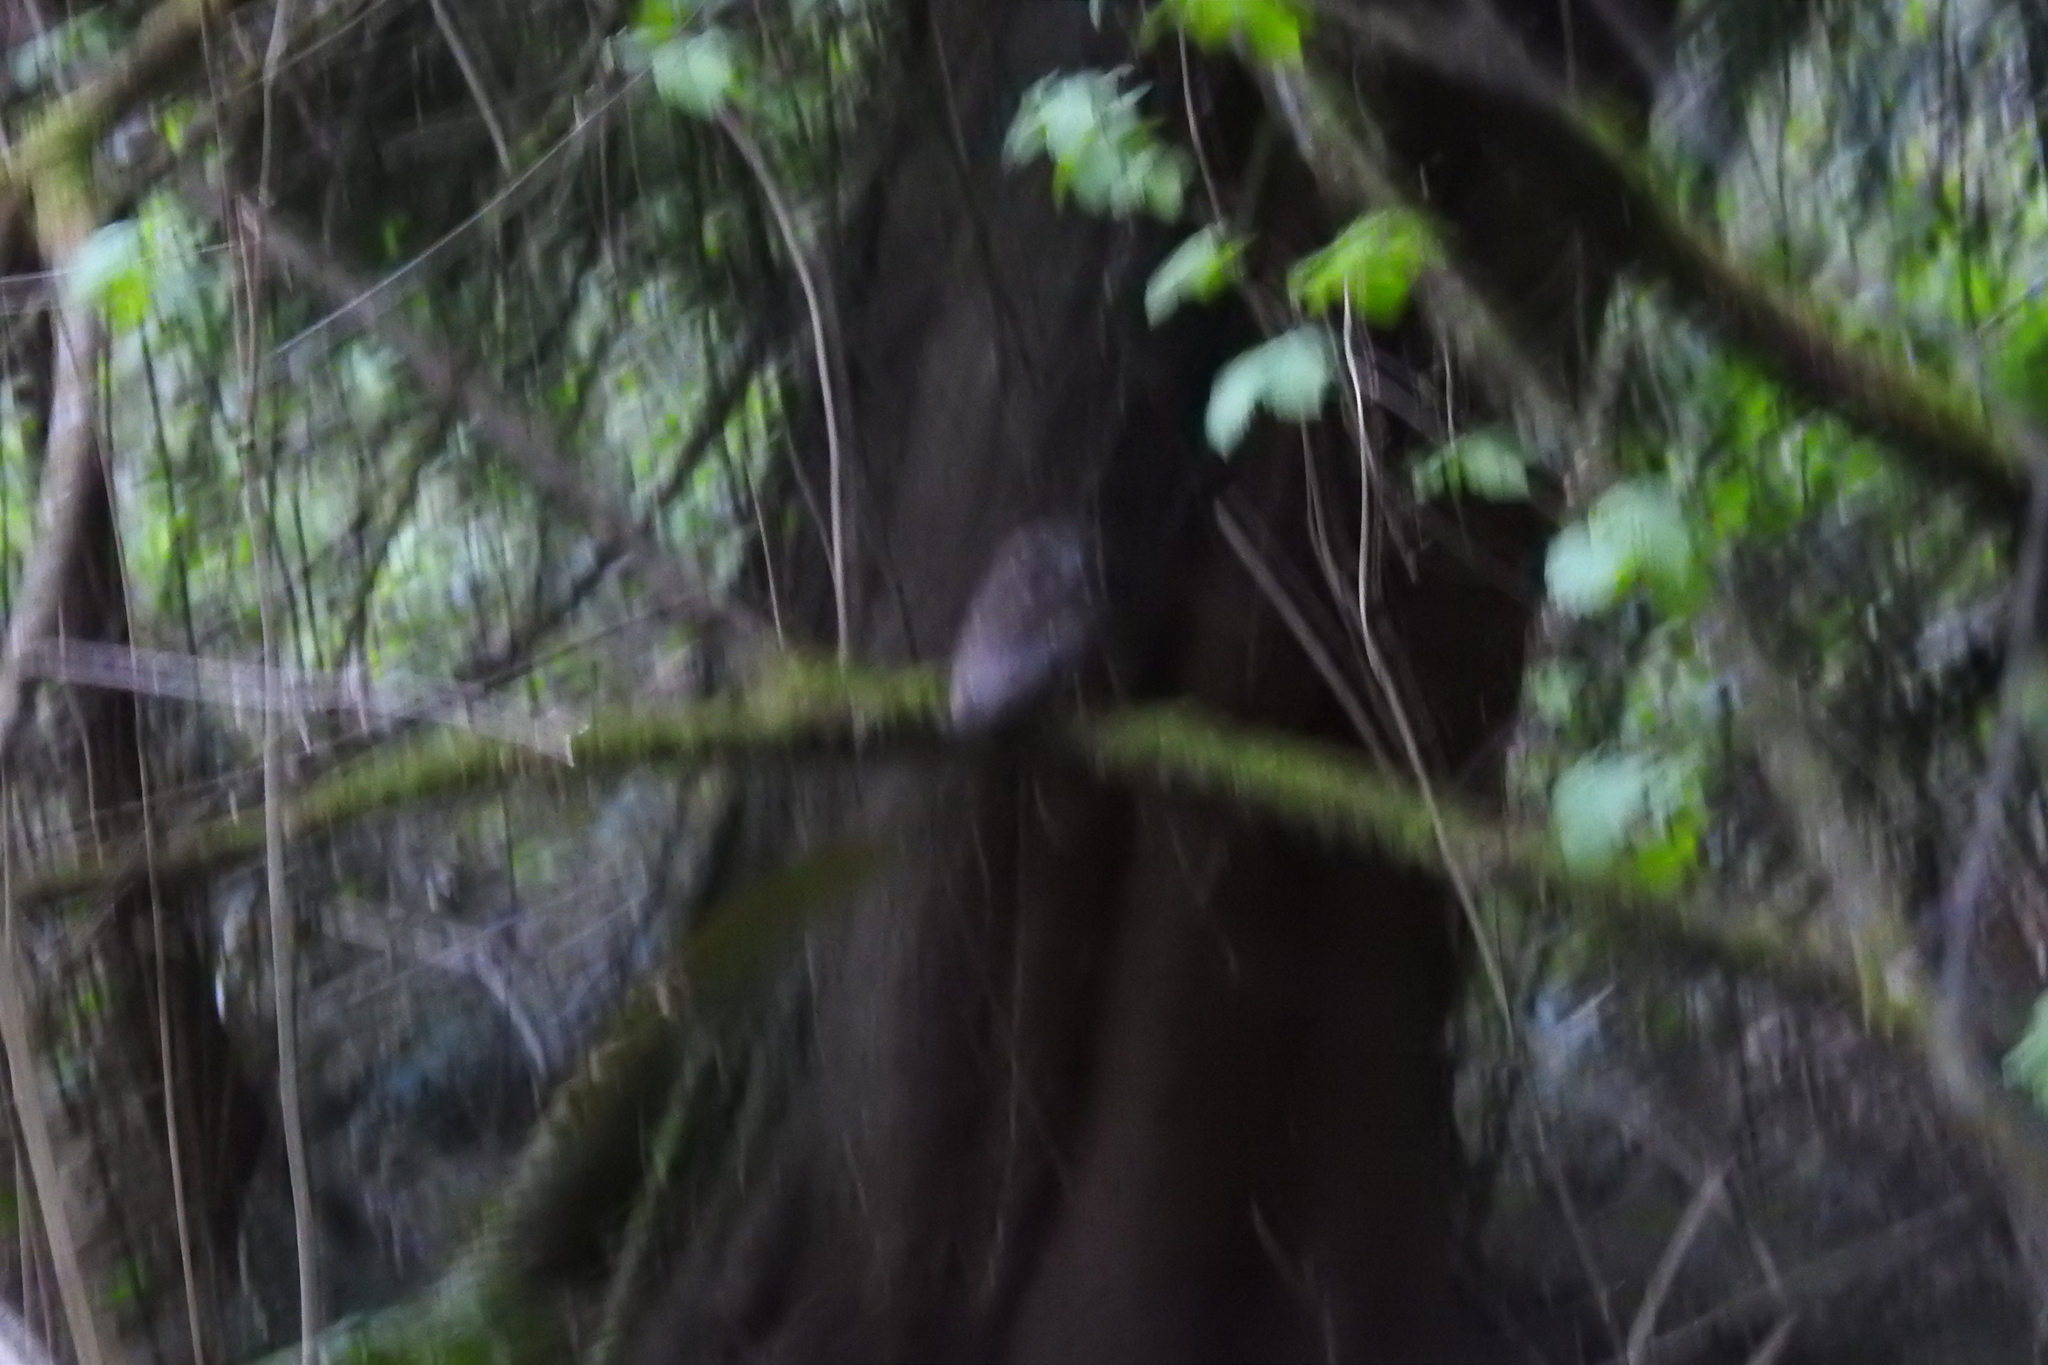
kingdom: Animalia
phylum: Chordata
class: Aves
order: Strigiformes
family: Strigidae
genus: Megascops
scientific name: Megascops kennicottii
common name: Western screech-owl
